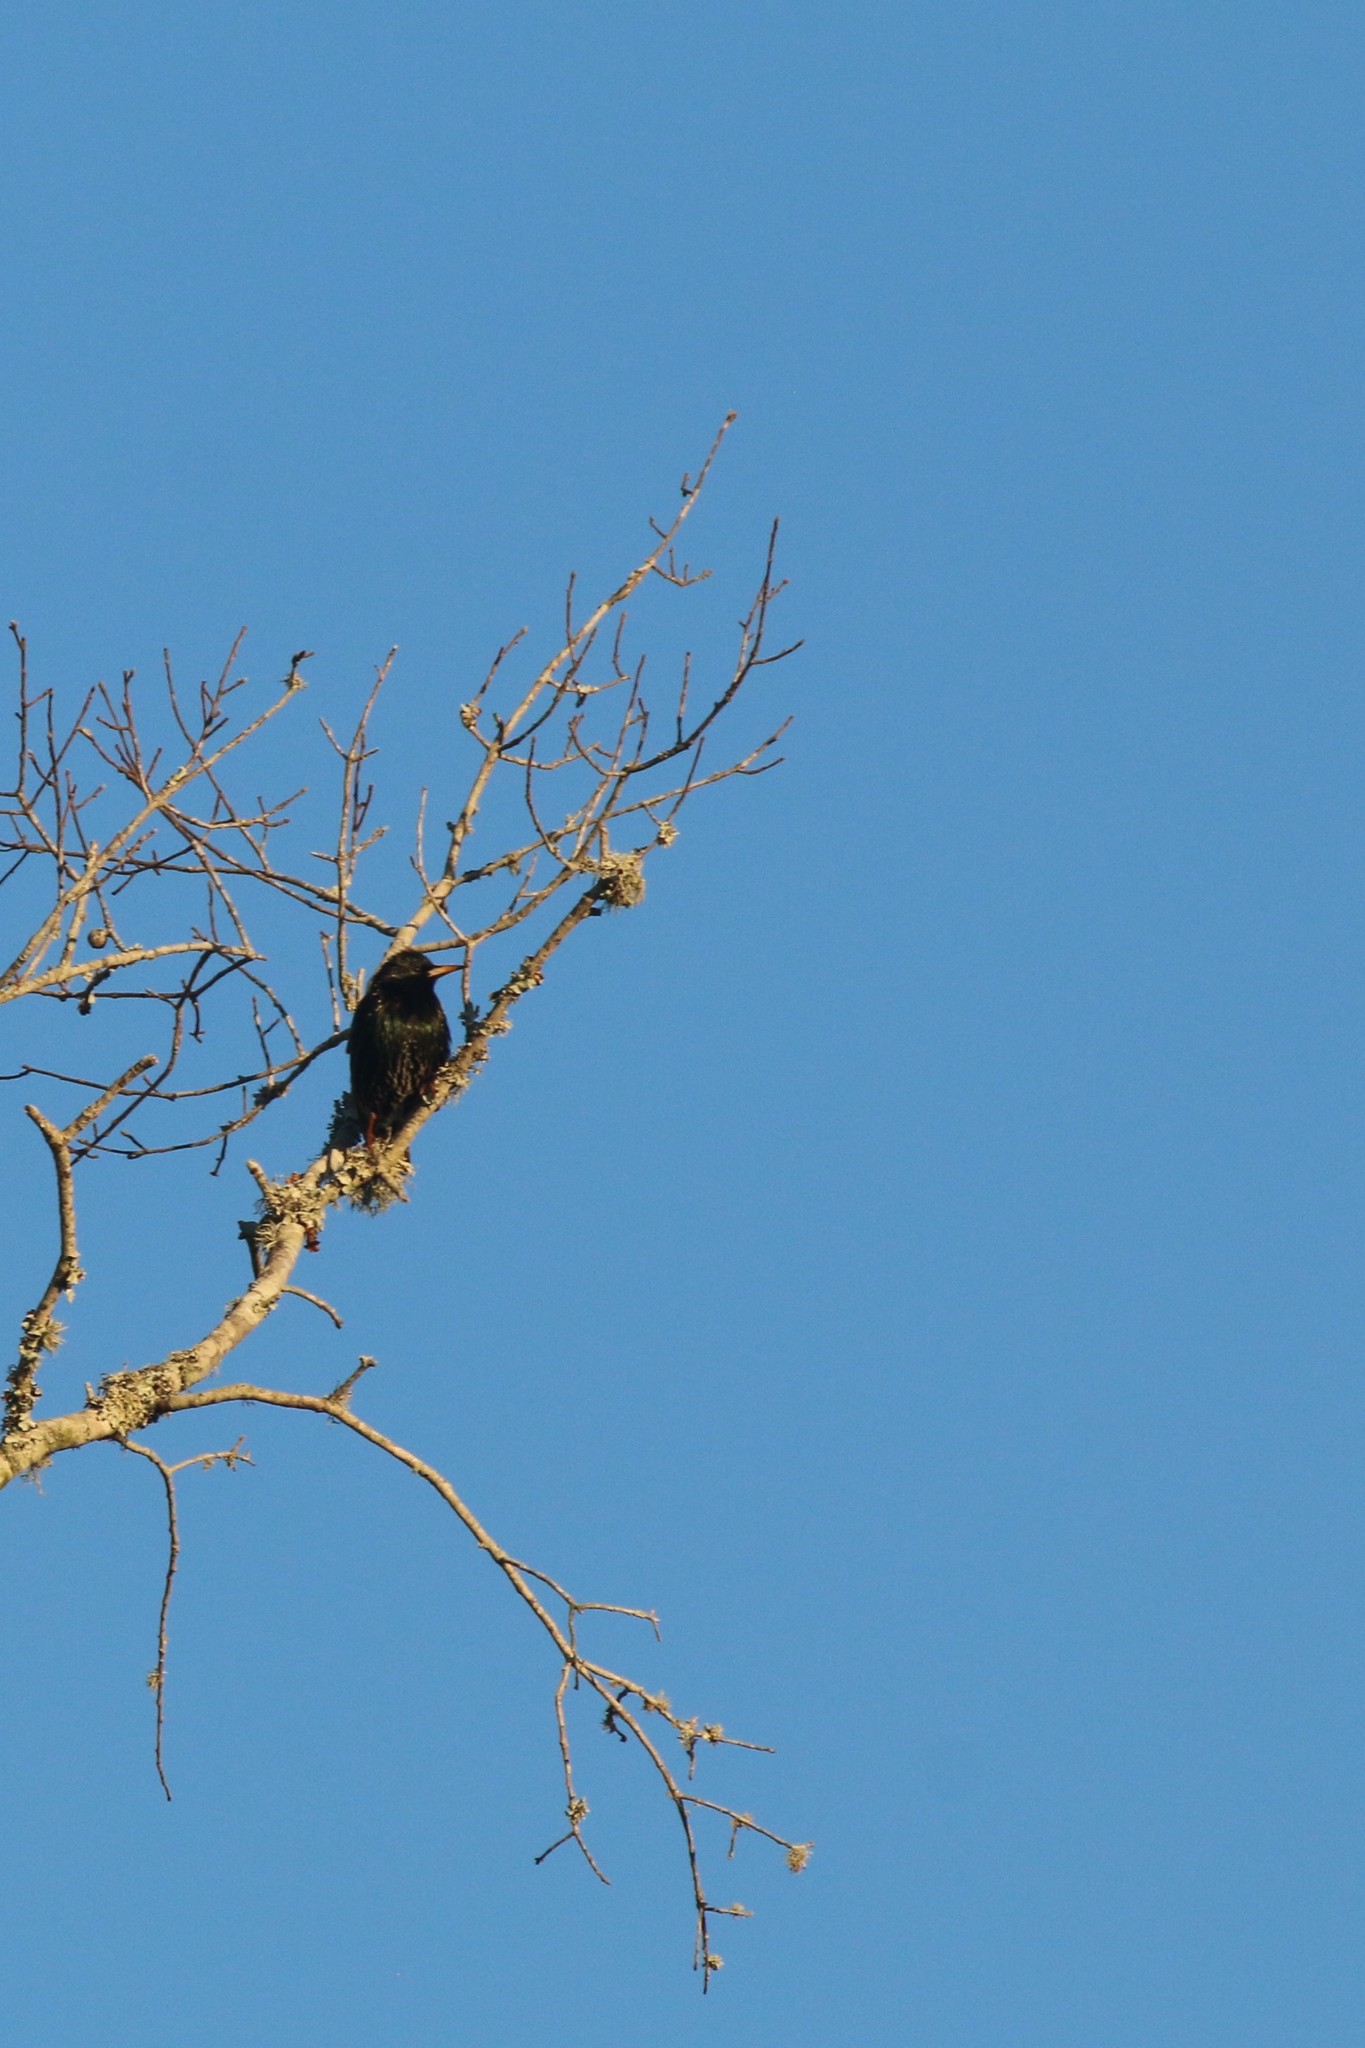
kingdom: Animalia
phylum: Chordata
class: Aves
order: Passeriformes
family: Sturnidae
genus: Sturnus
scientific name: Sturnus vulgaris
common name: Common starling
